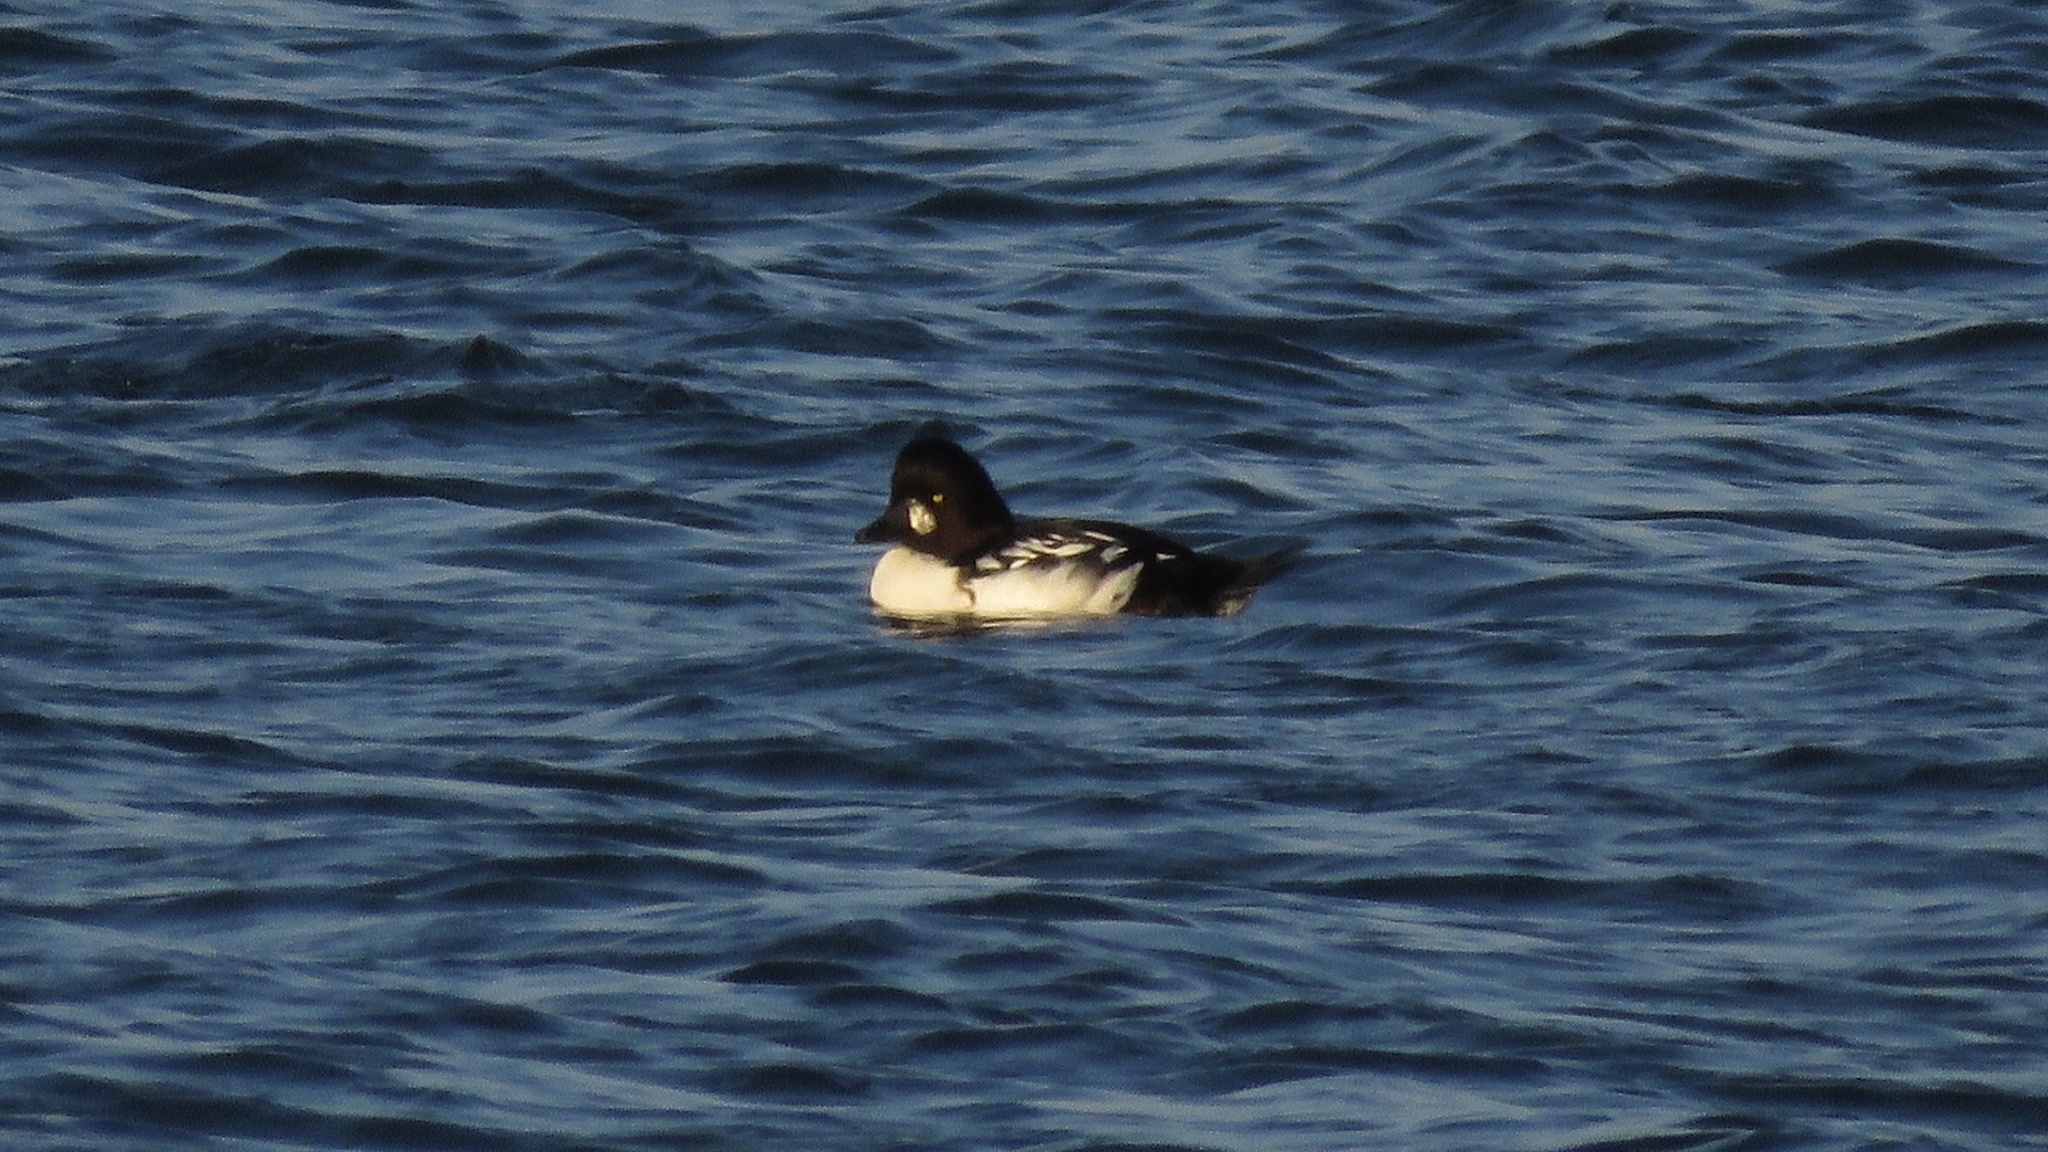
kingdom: Animalia
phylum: Chordata
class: Aves
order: Anseriformes
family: Anatidae
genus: Bucephala
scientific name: Bucephala
